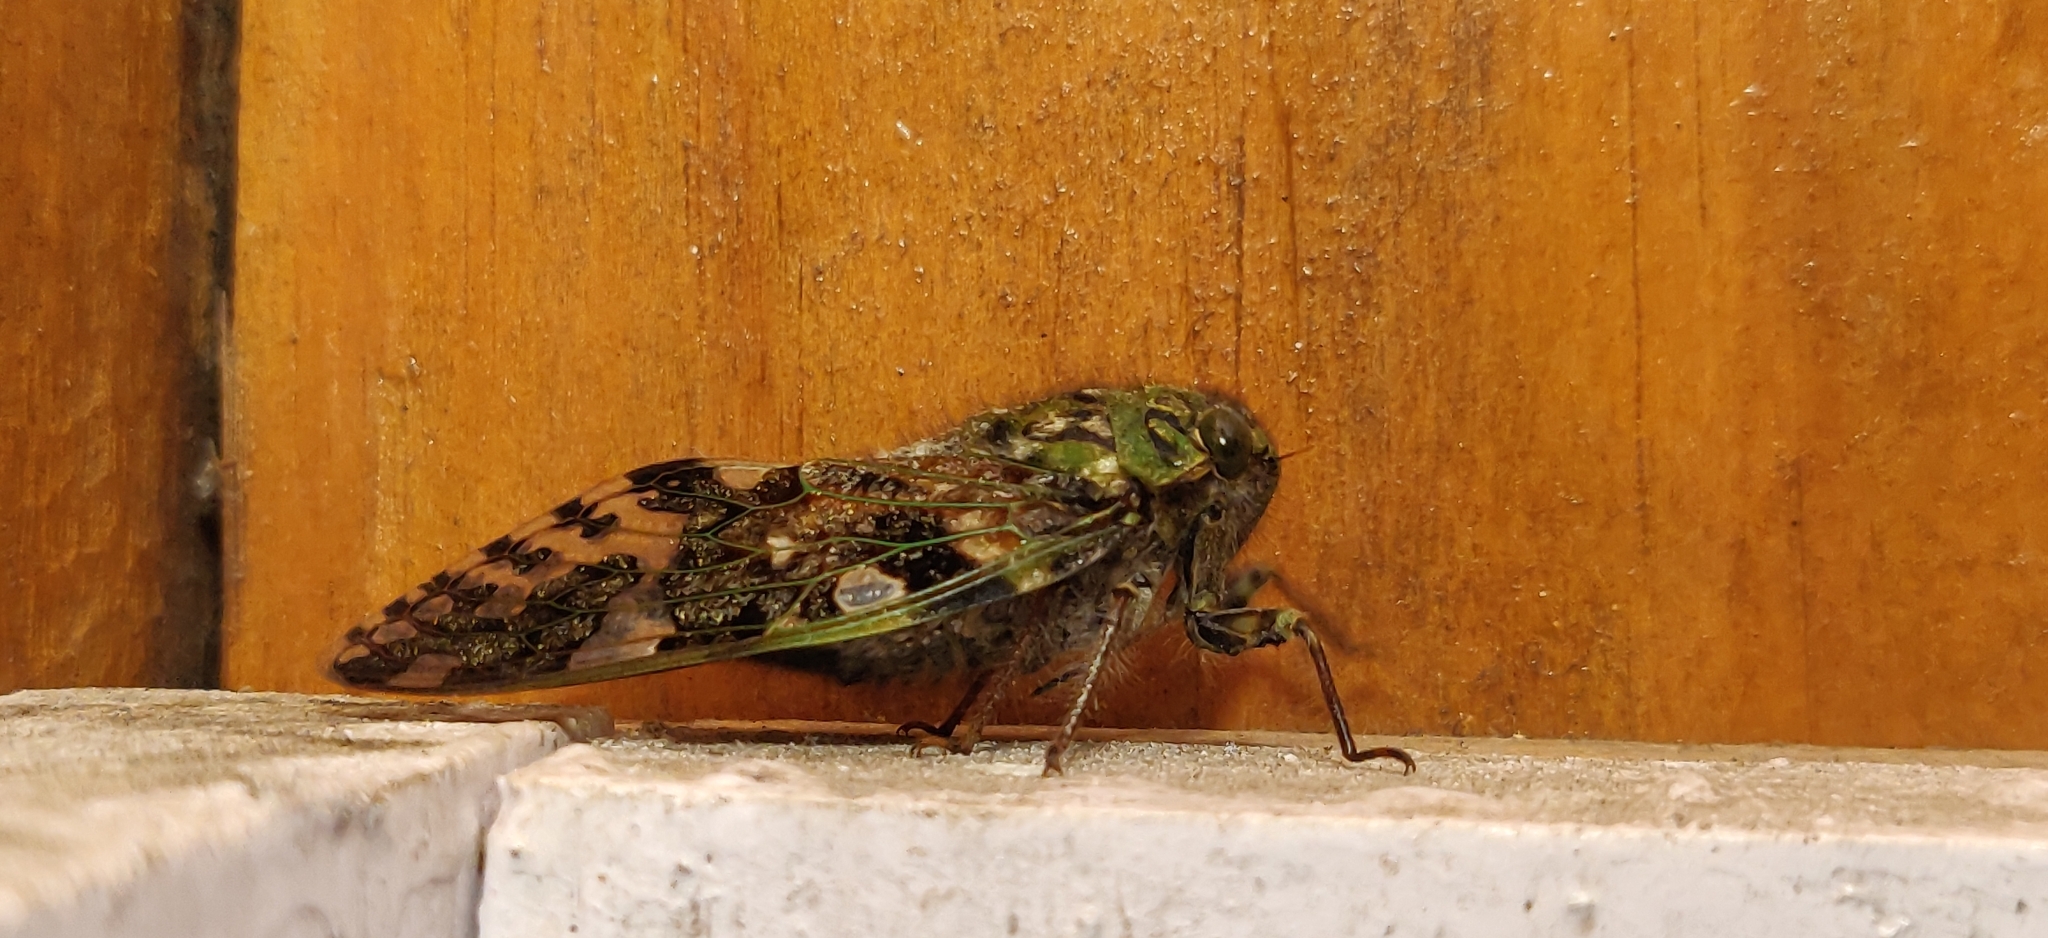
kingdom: Animalia
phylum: Arthropoda
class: Insecta
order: Hemiptera
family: Cicadidae
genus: Eopycna
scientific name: Eopycna repanda
